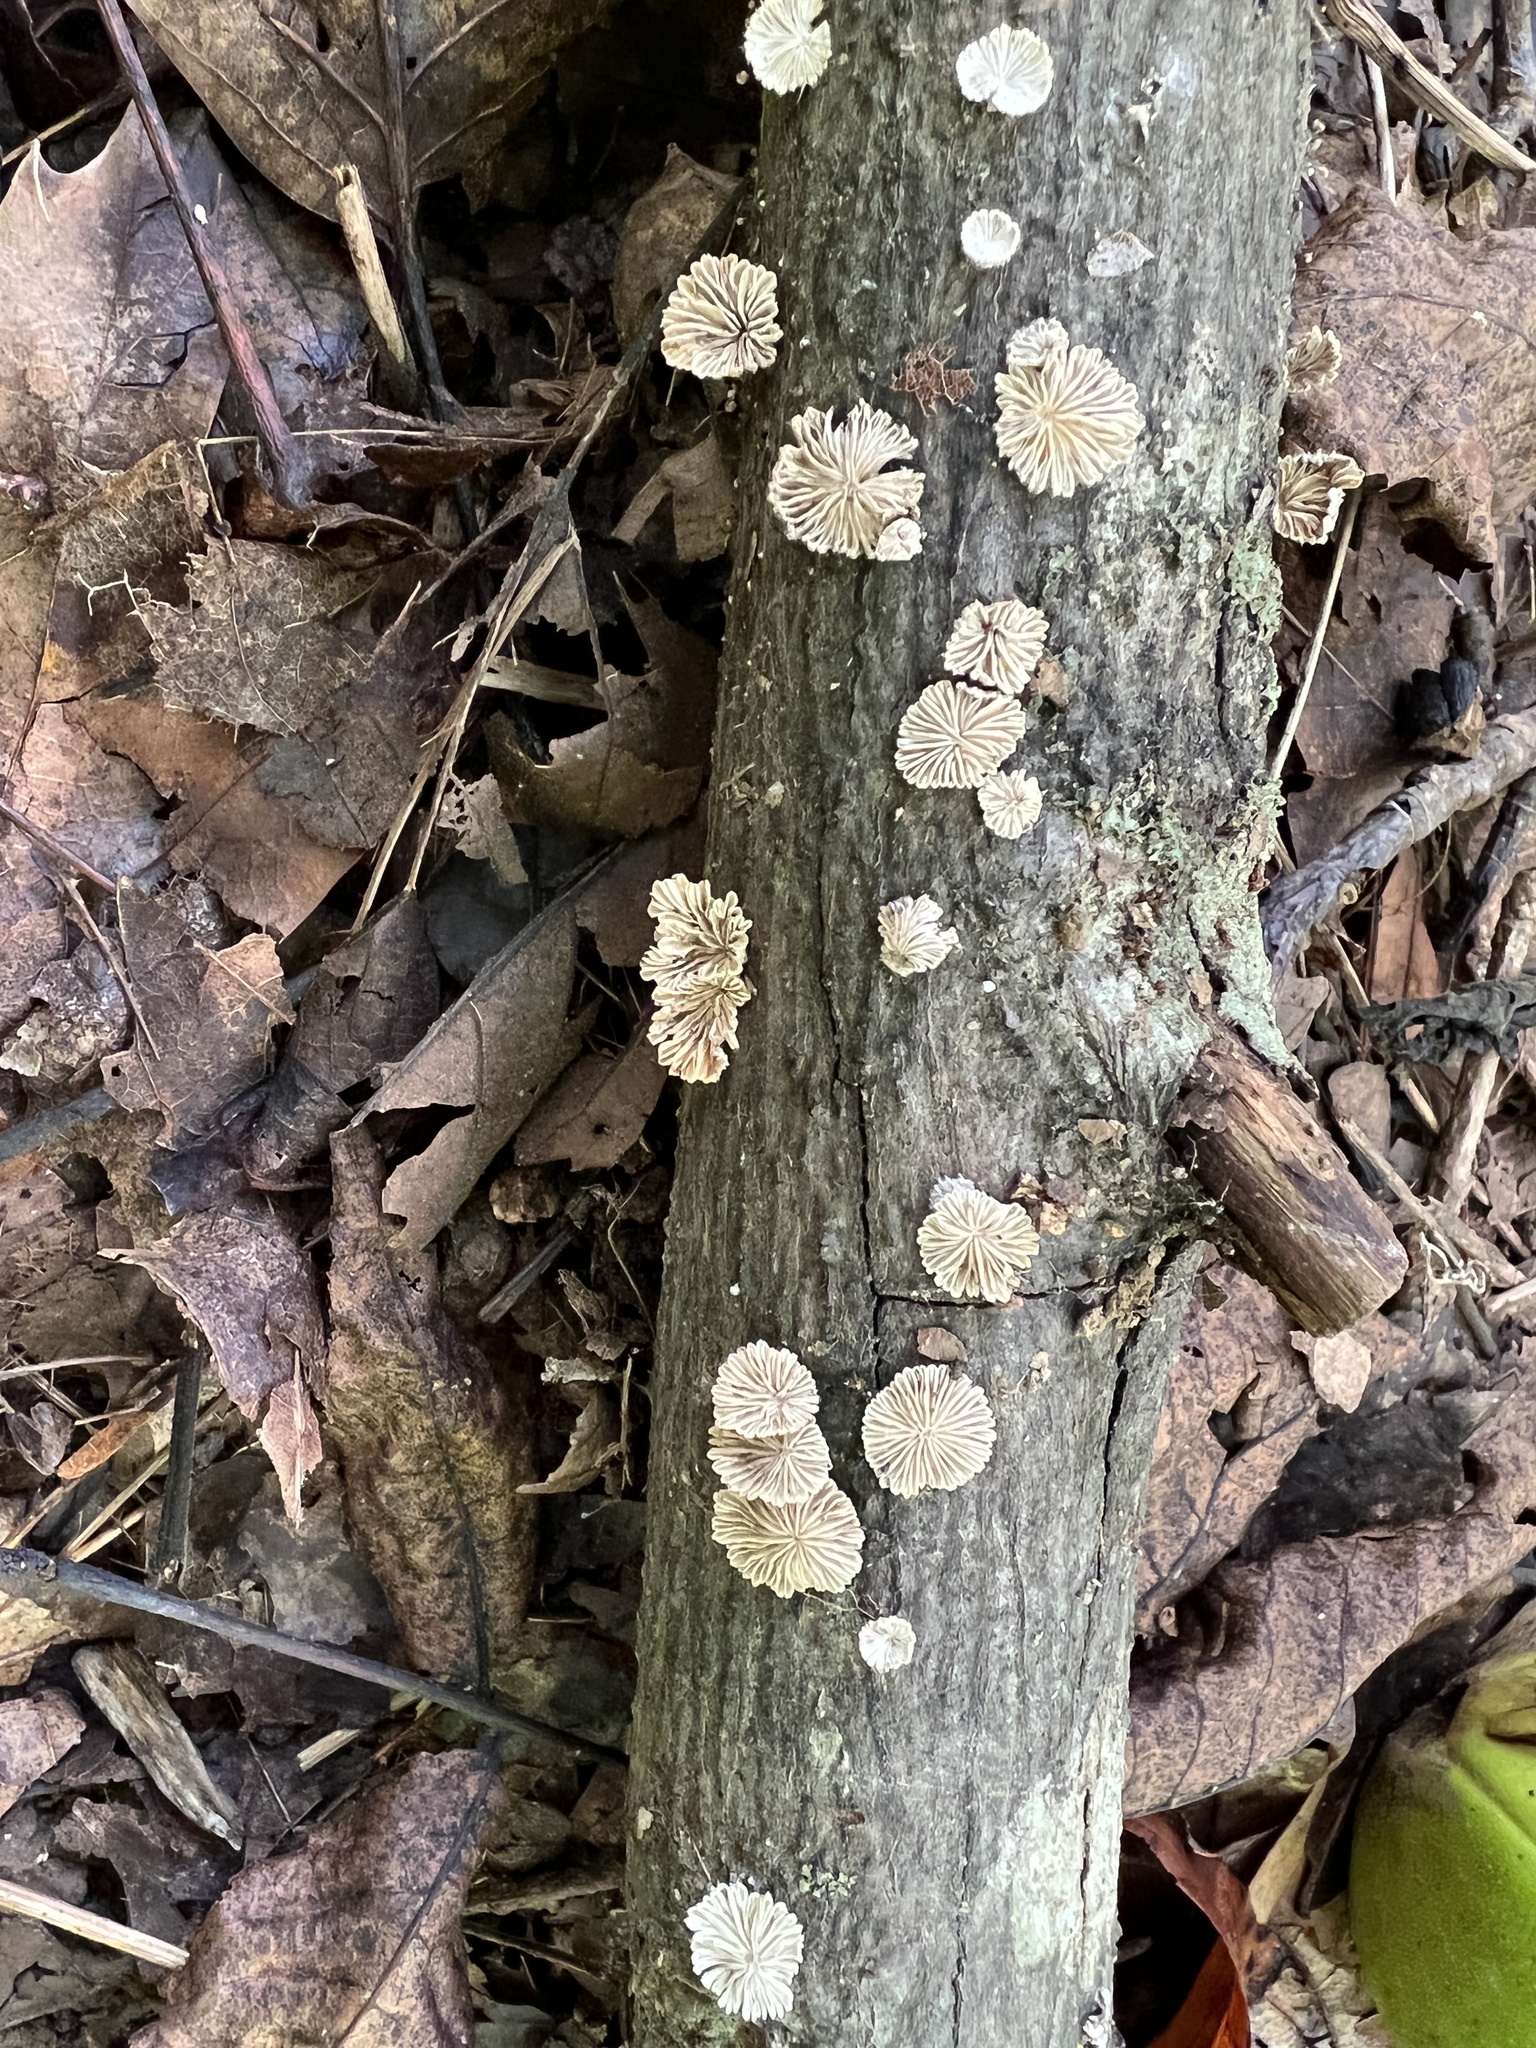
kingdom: Fungi
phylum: Basidiomycota
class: Agaricomycetes
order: Agaricales
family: Schizophyllaceae
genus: Schizophyllum
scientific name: Schizophyllum commune
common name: Common porecrust
